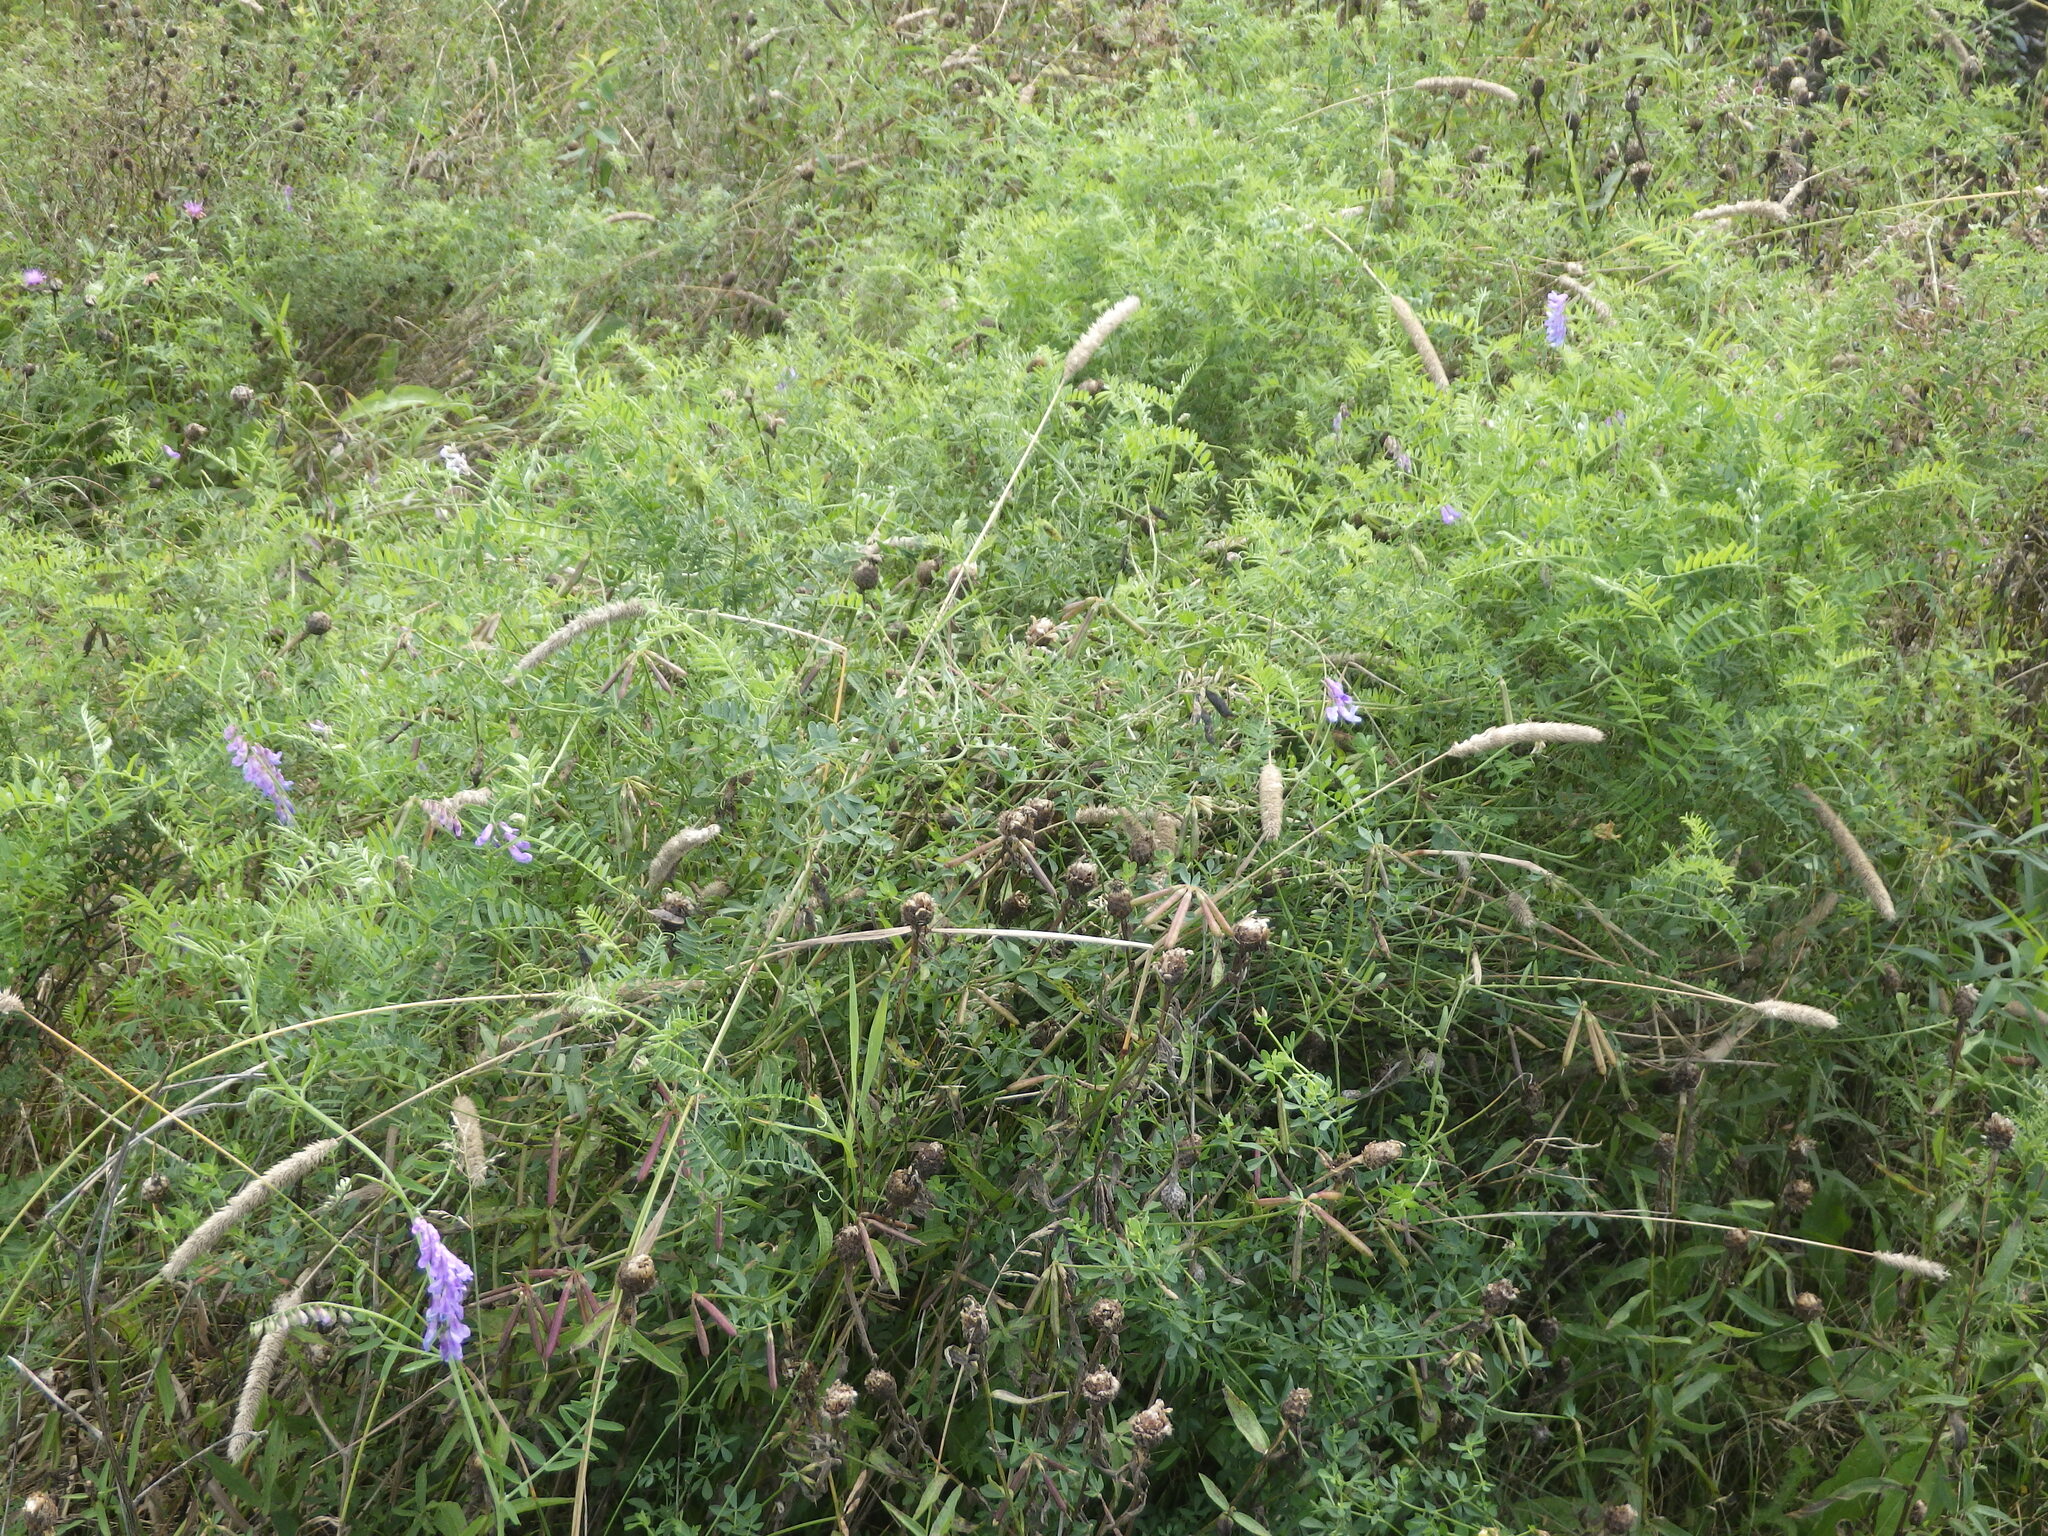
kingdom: Plantae
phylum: Tracheophyta
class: Magnoliopsida
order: Fabales
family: Fabaceae
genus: Vicia
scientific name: Vicia cracca
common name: Bird vetch
